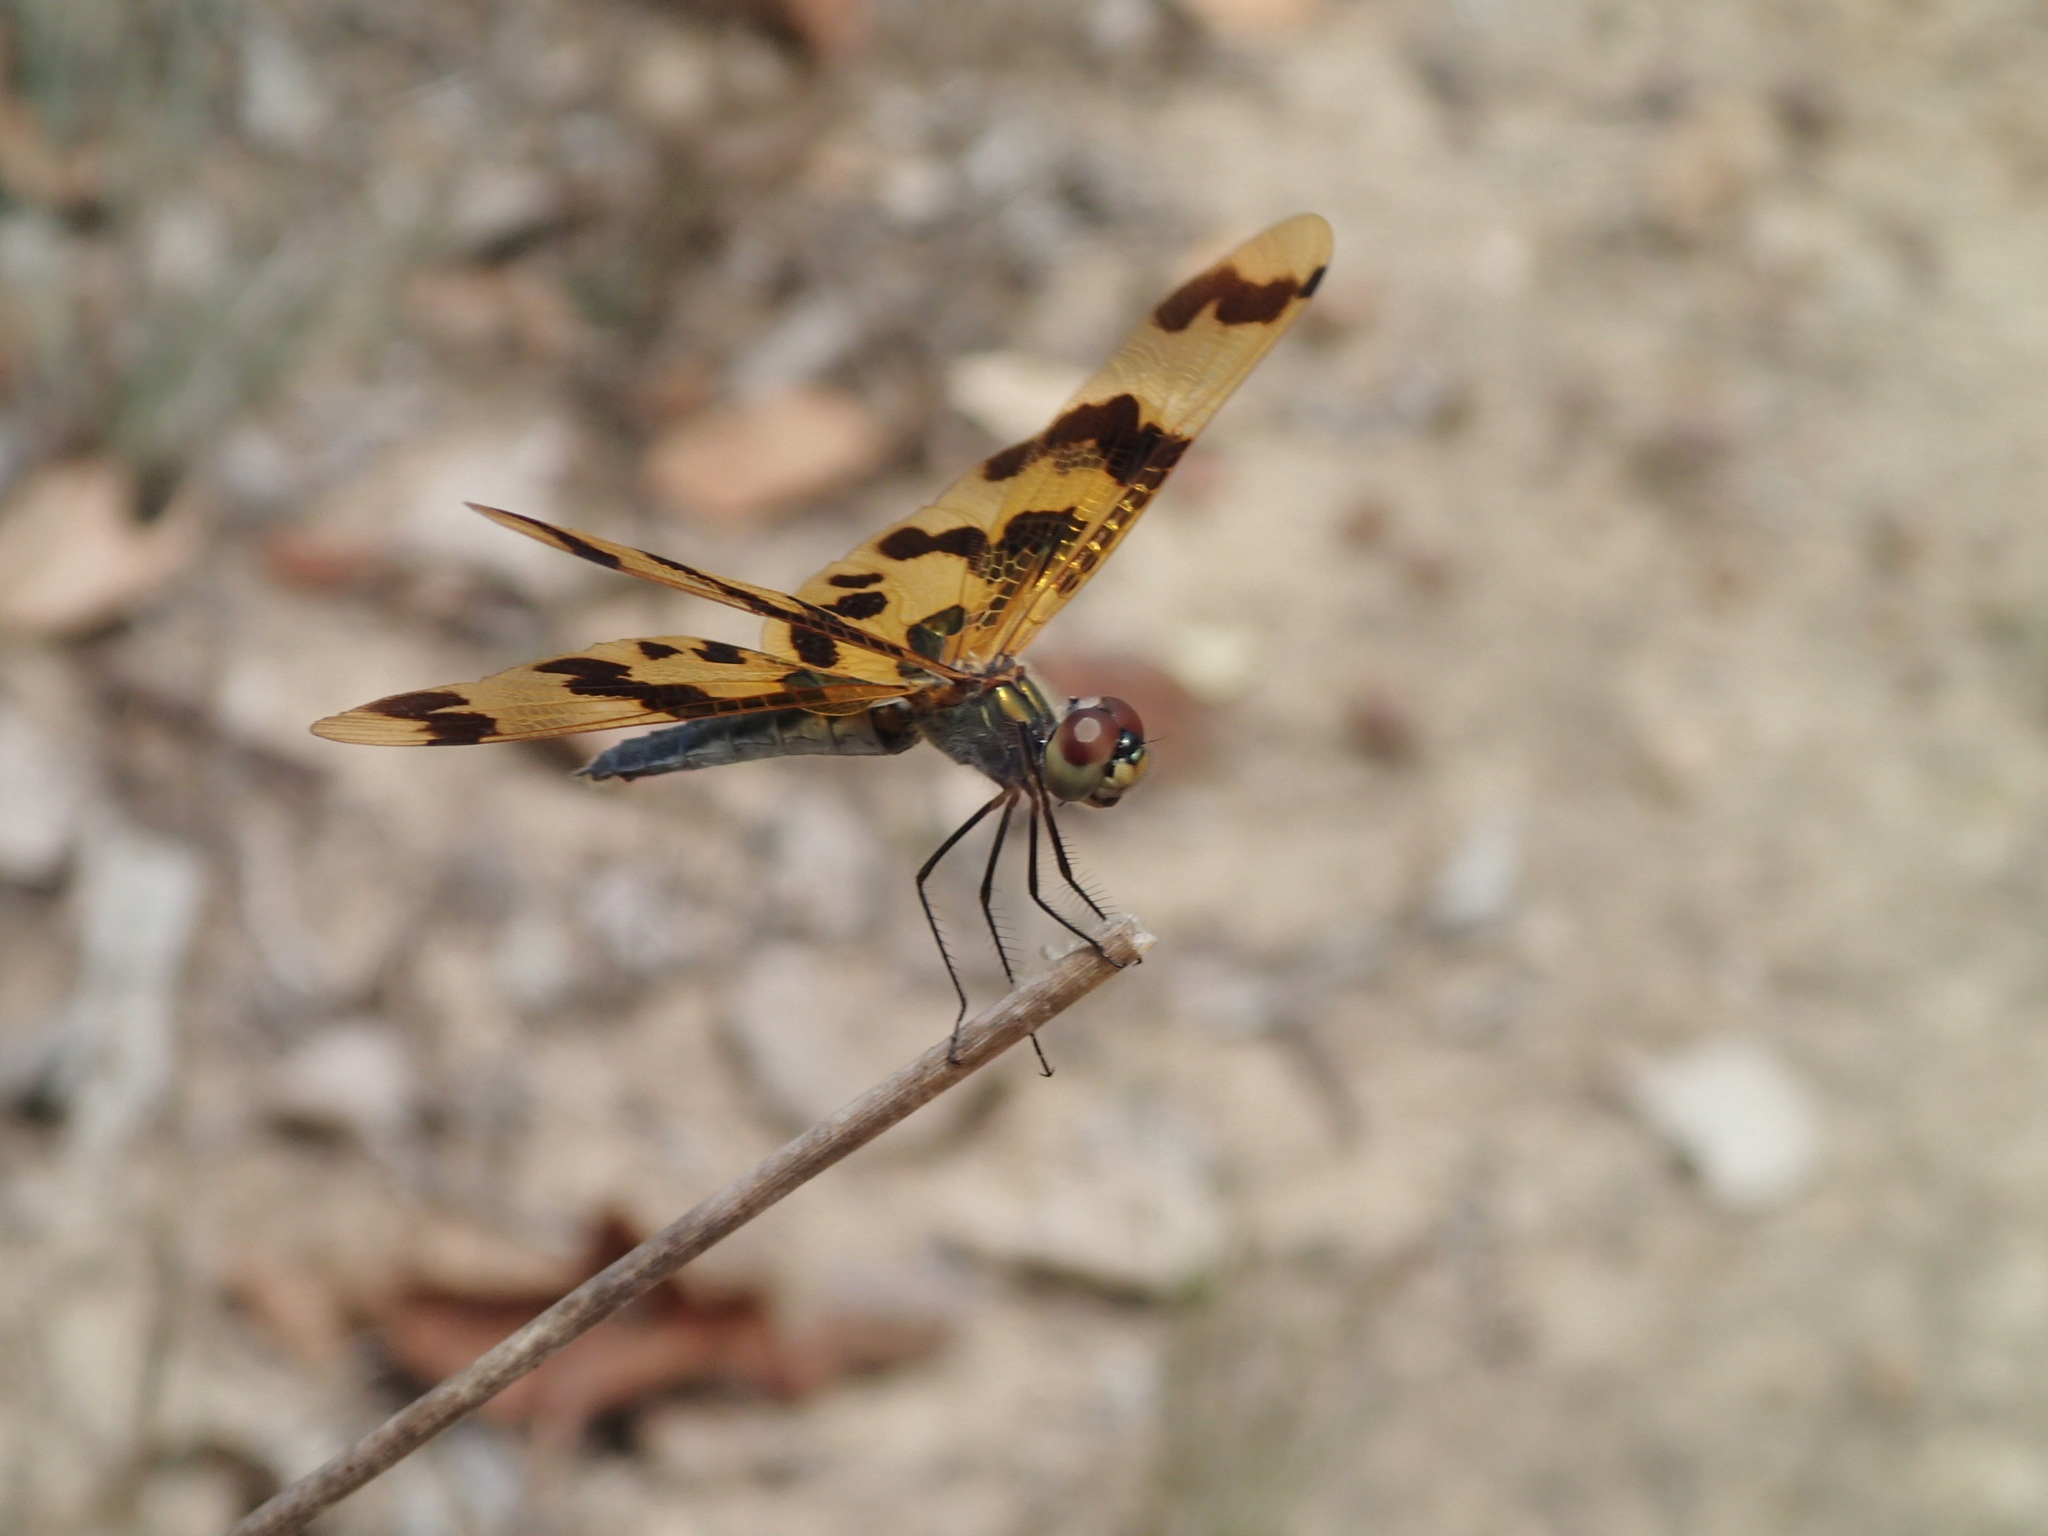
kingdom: Animalia
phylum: Arthropoda
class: Insecta
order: Odonata
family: Libellulidae
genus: Rhyothemis
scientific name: Rhyothemis graphiptera
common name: Graphic flutterer
